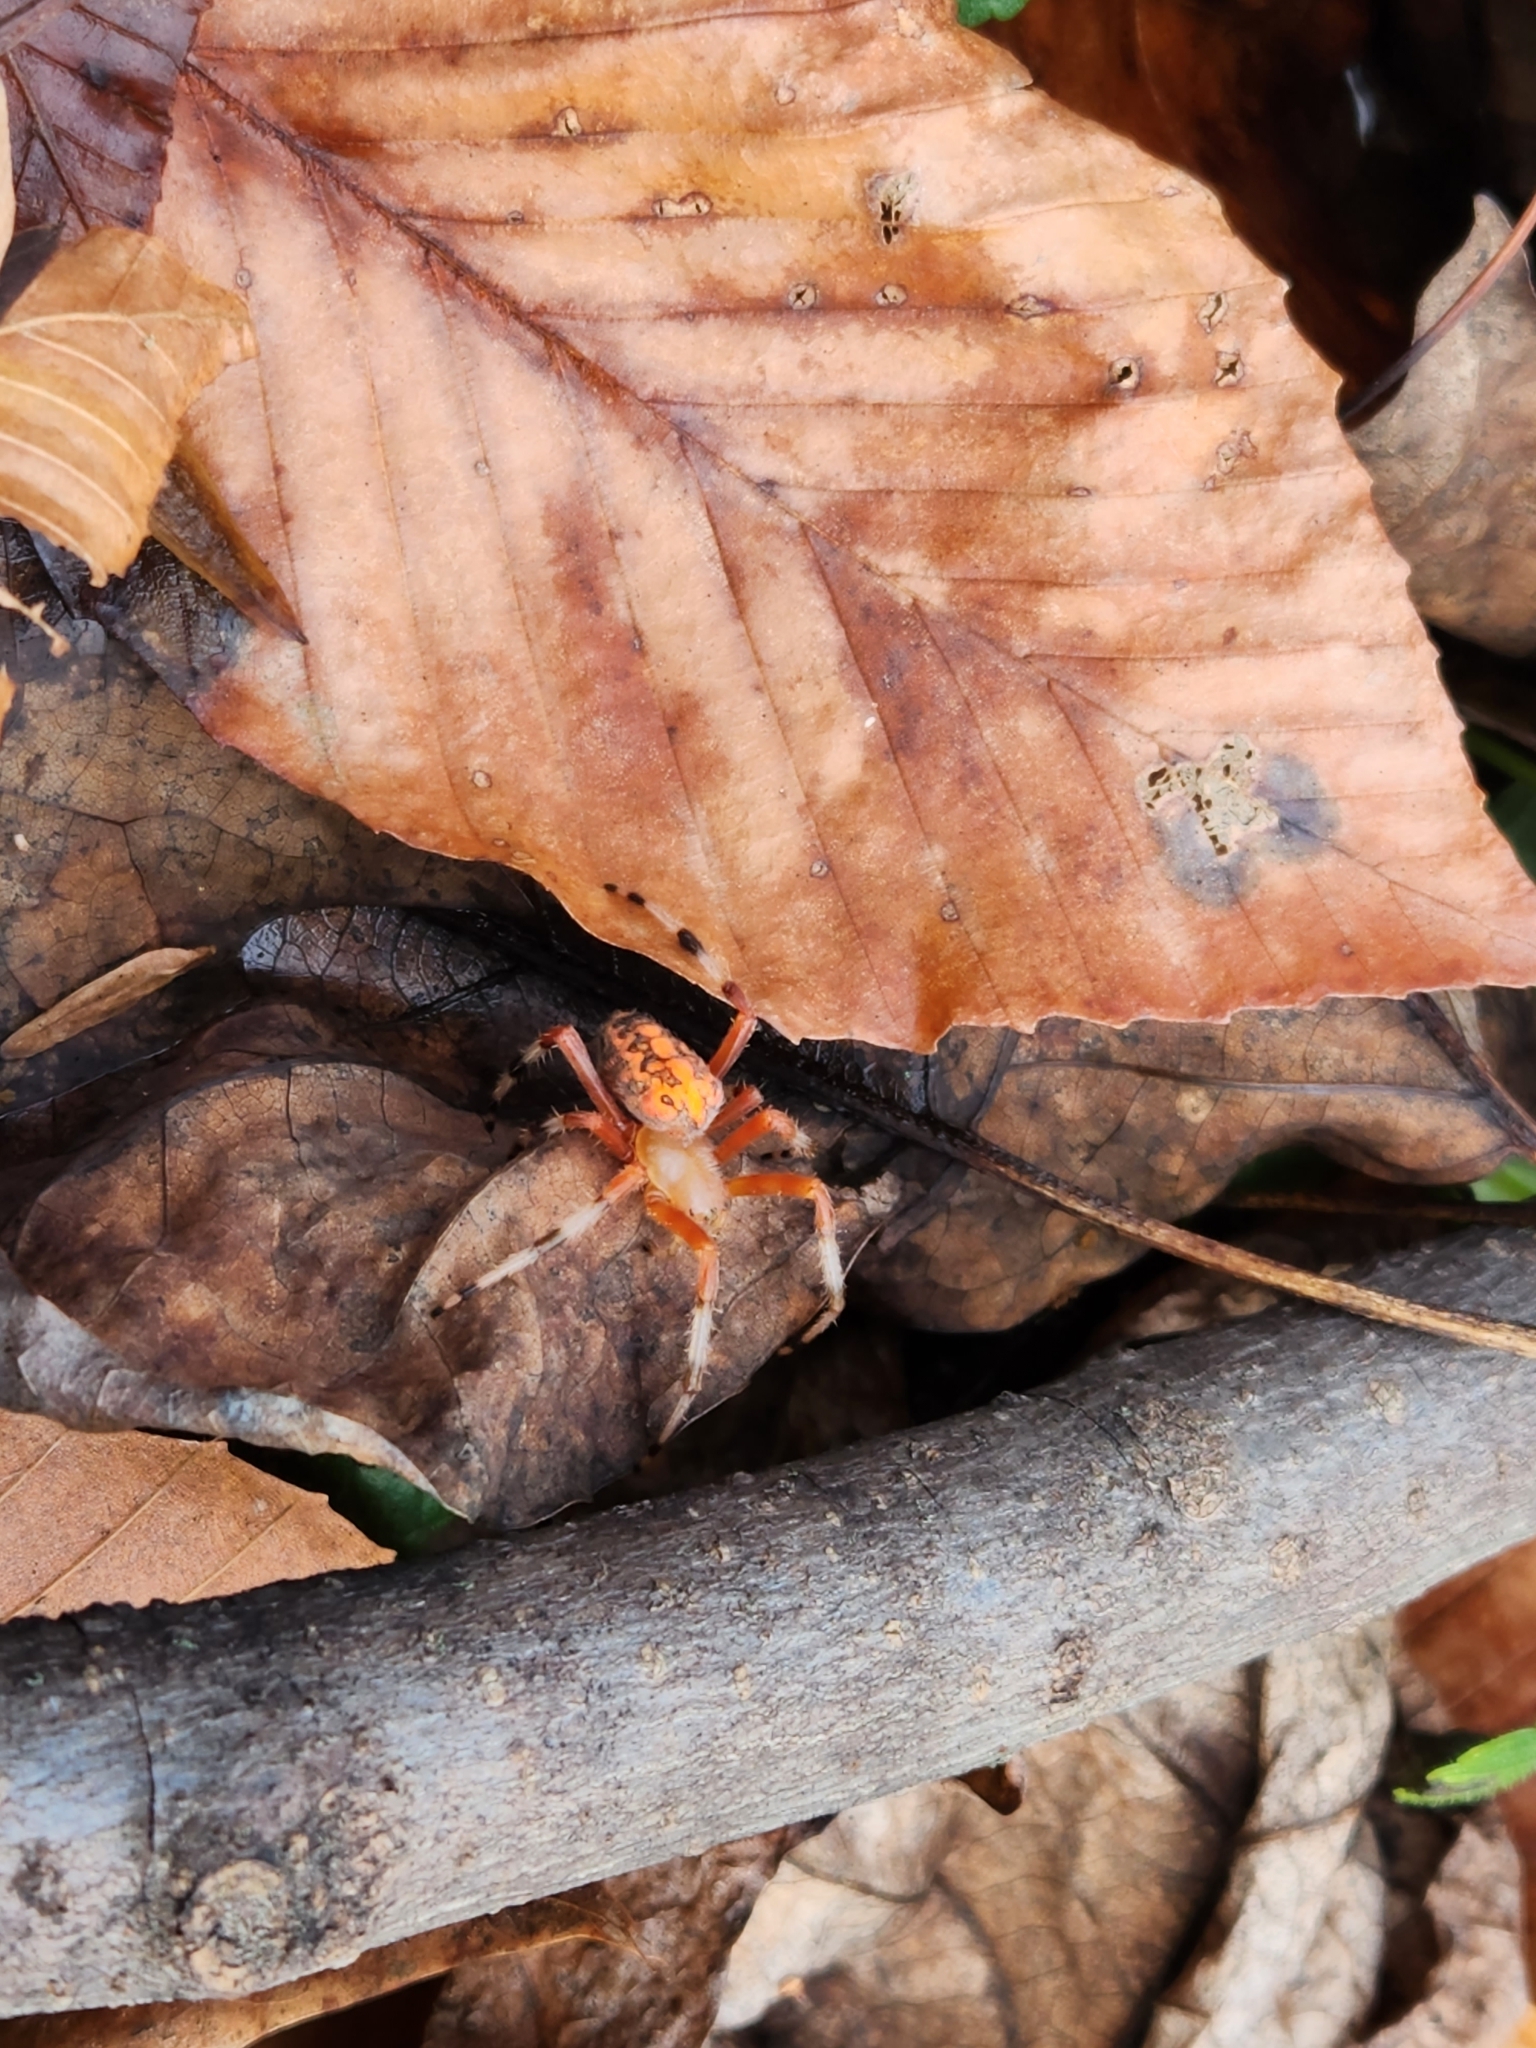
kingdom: Animalia
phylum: Arthropoda
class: Arachnida
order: Araneae
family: Araneidae
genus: Araneus
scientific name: Araneus marmoreus
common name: Marbled orbweaver
